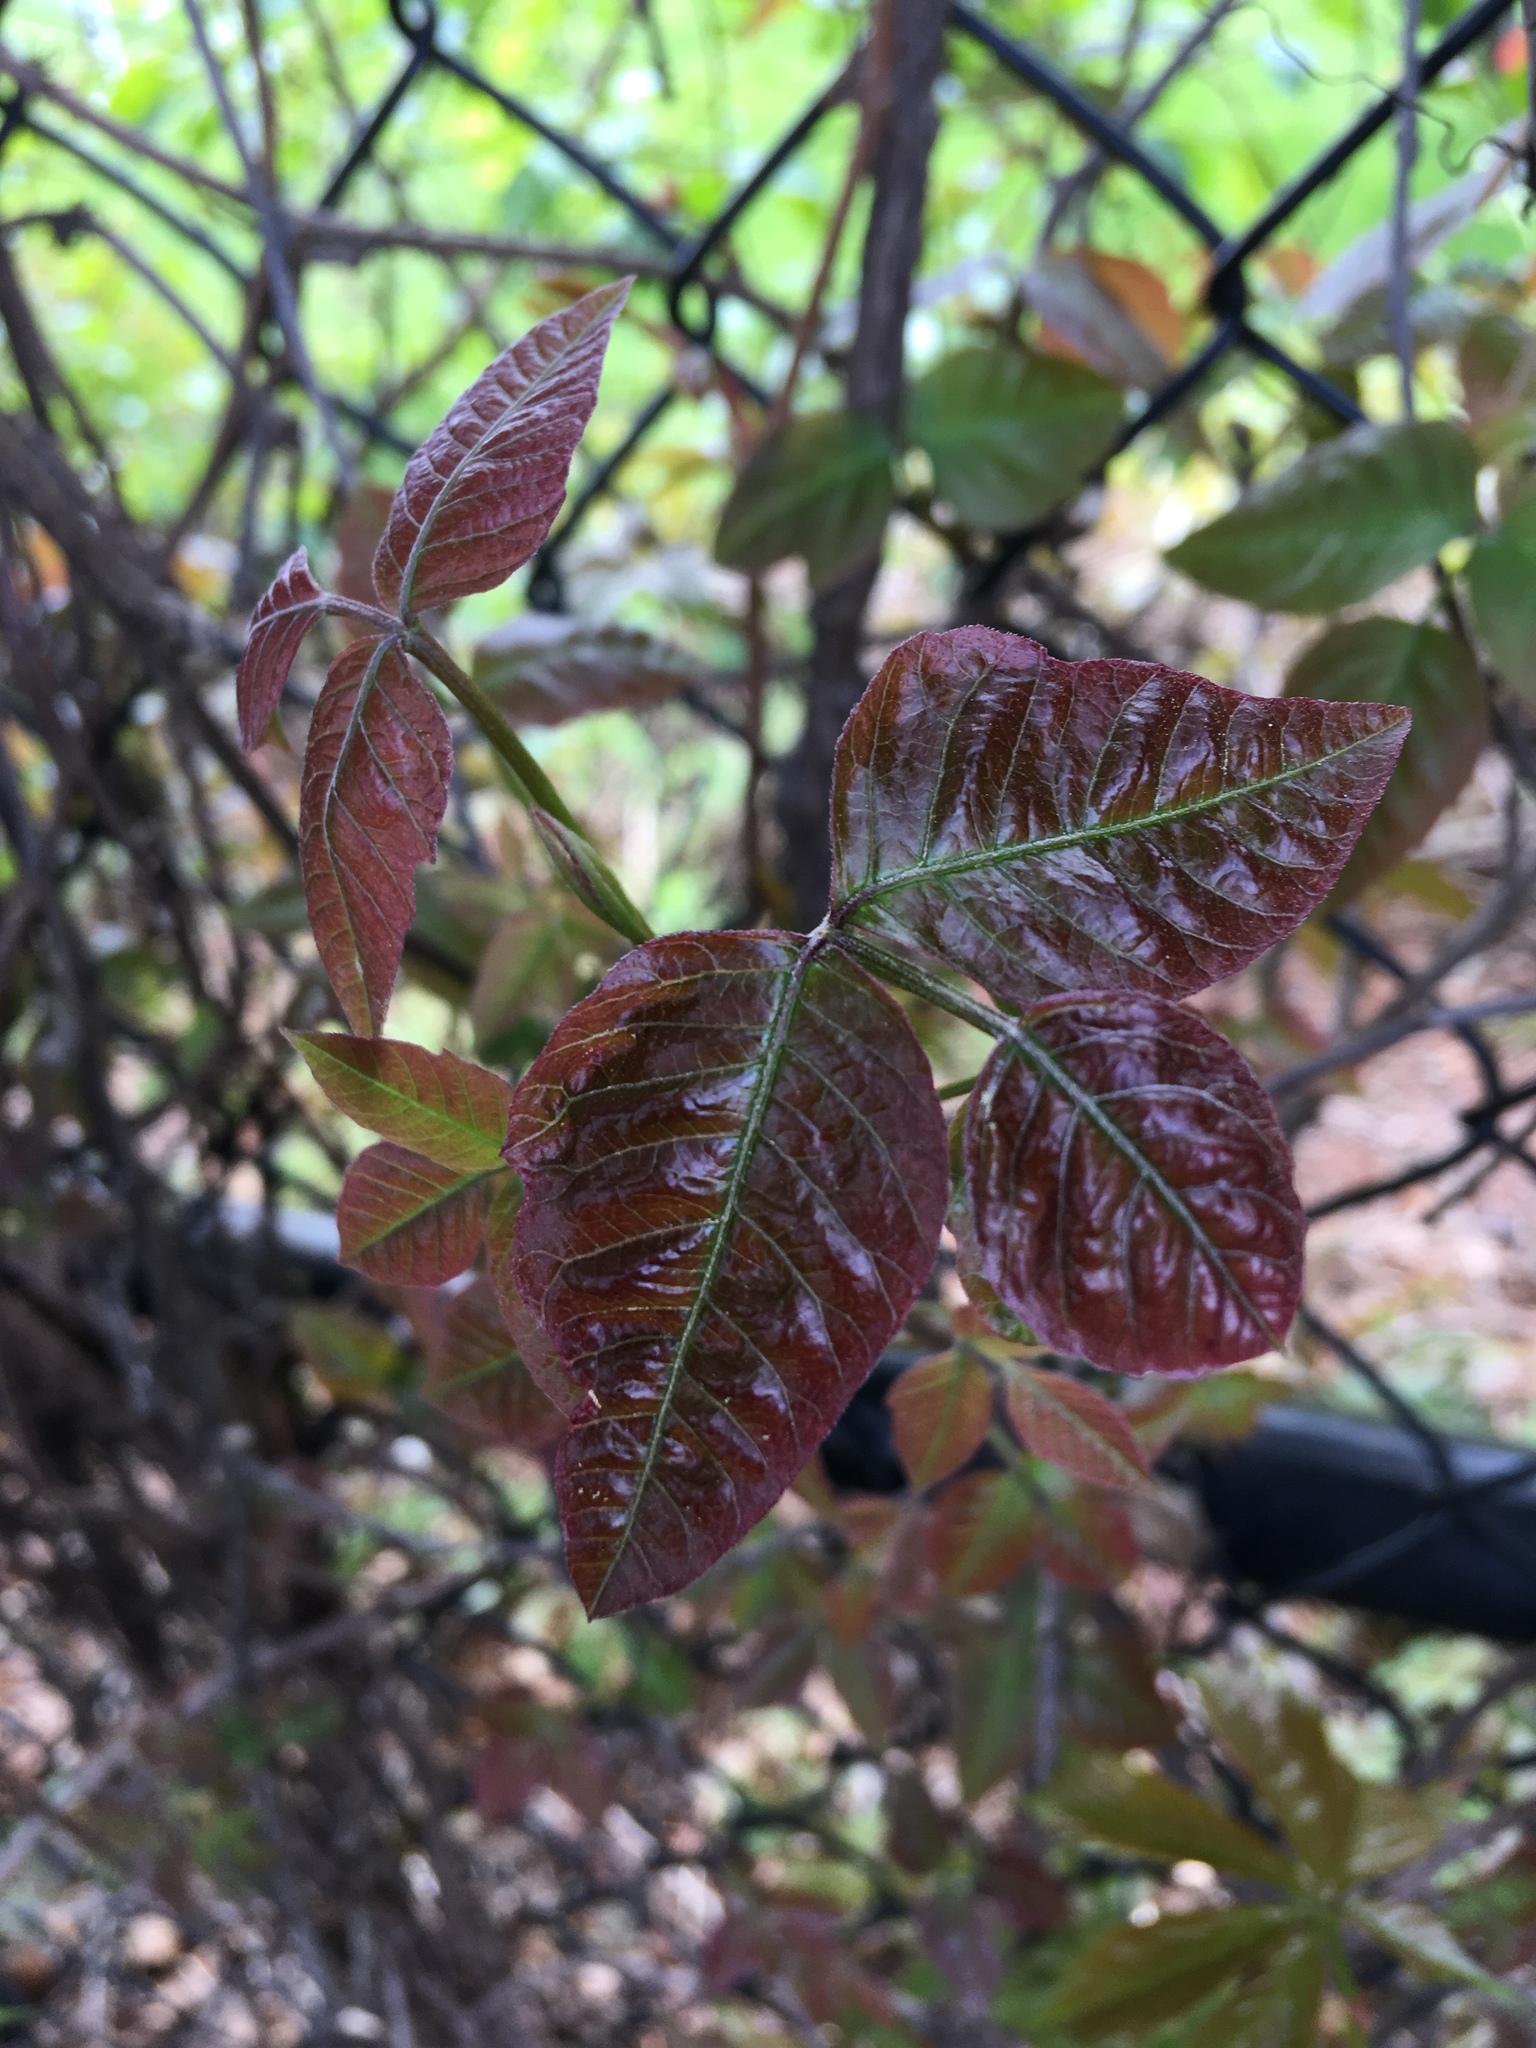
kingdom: Plantae
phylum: Tracheophyta
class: Magnoliopsida
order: Sapindales
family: Anacardiaceae
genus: Toxicodendron
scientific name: Toxicodendron radicans
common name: Poison ivy
